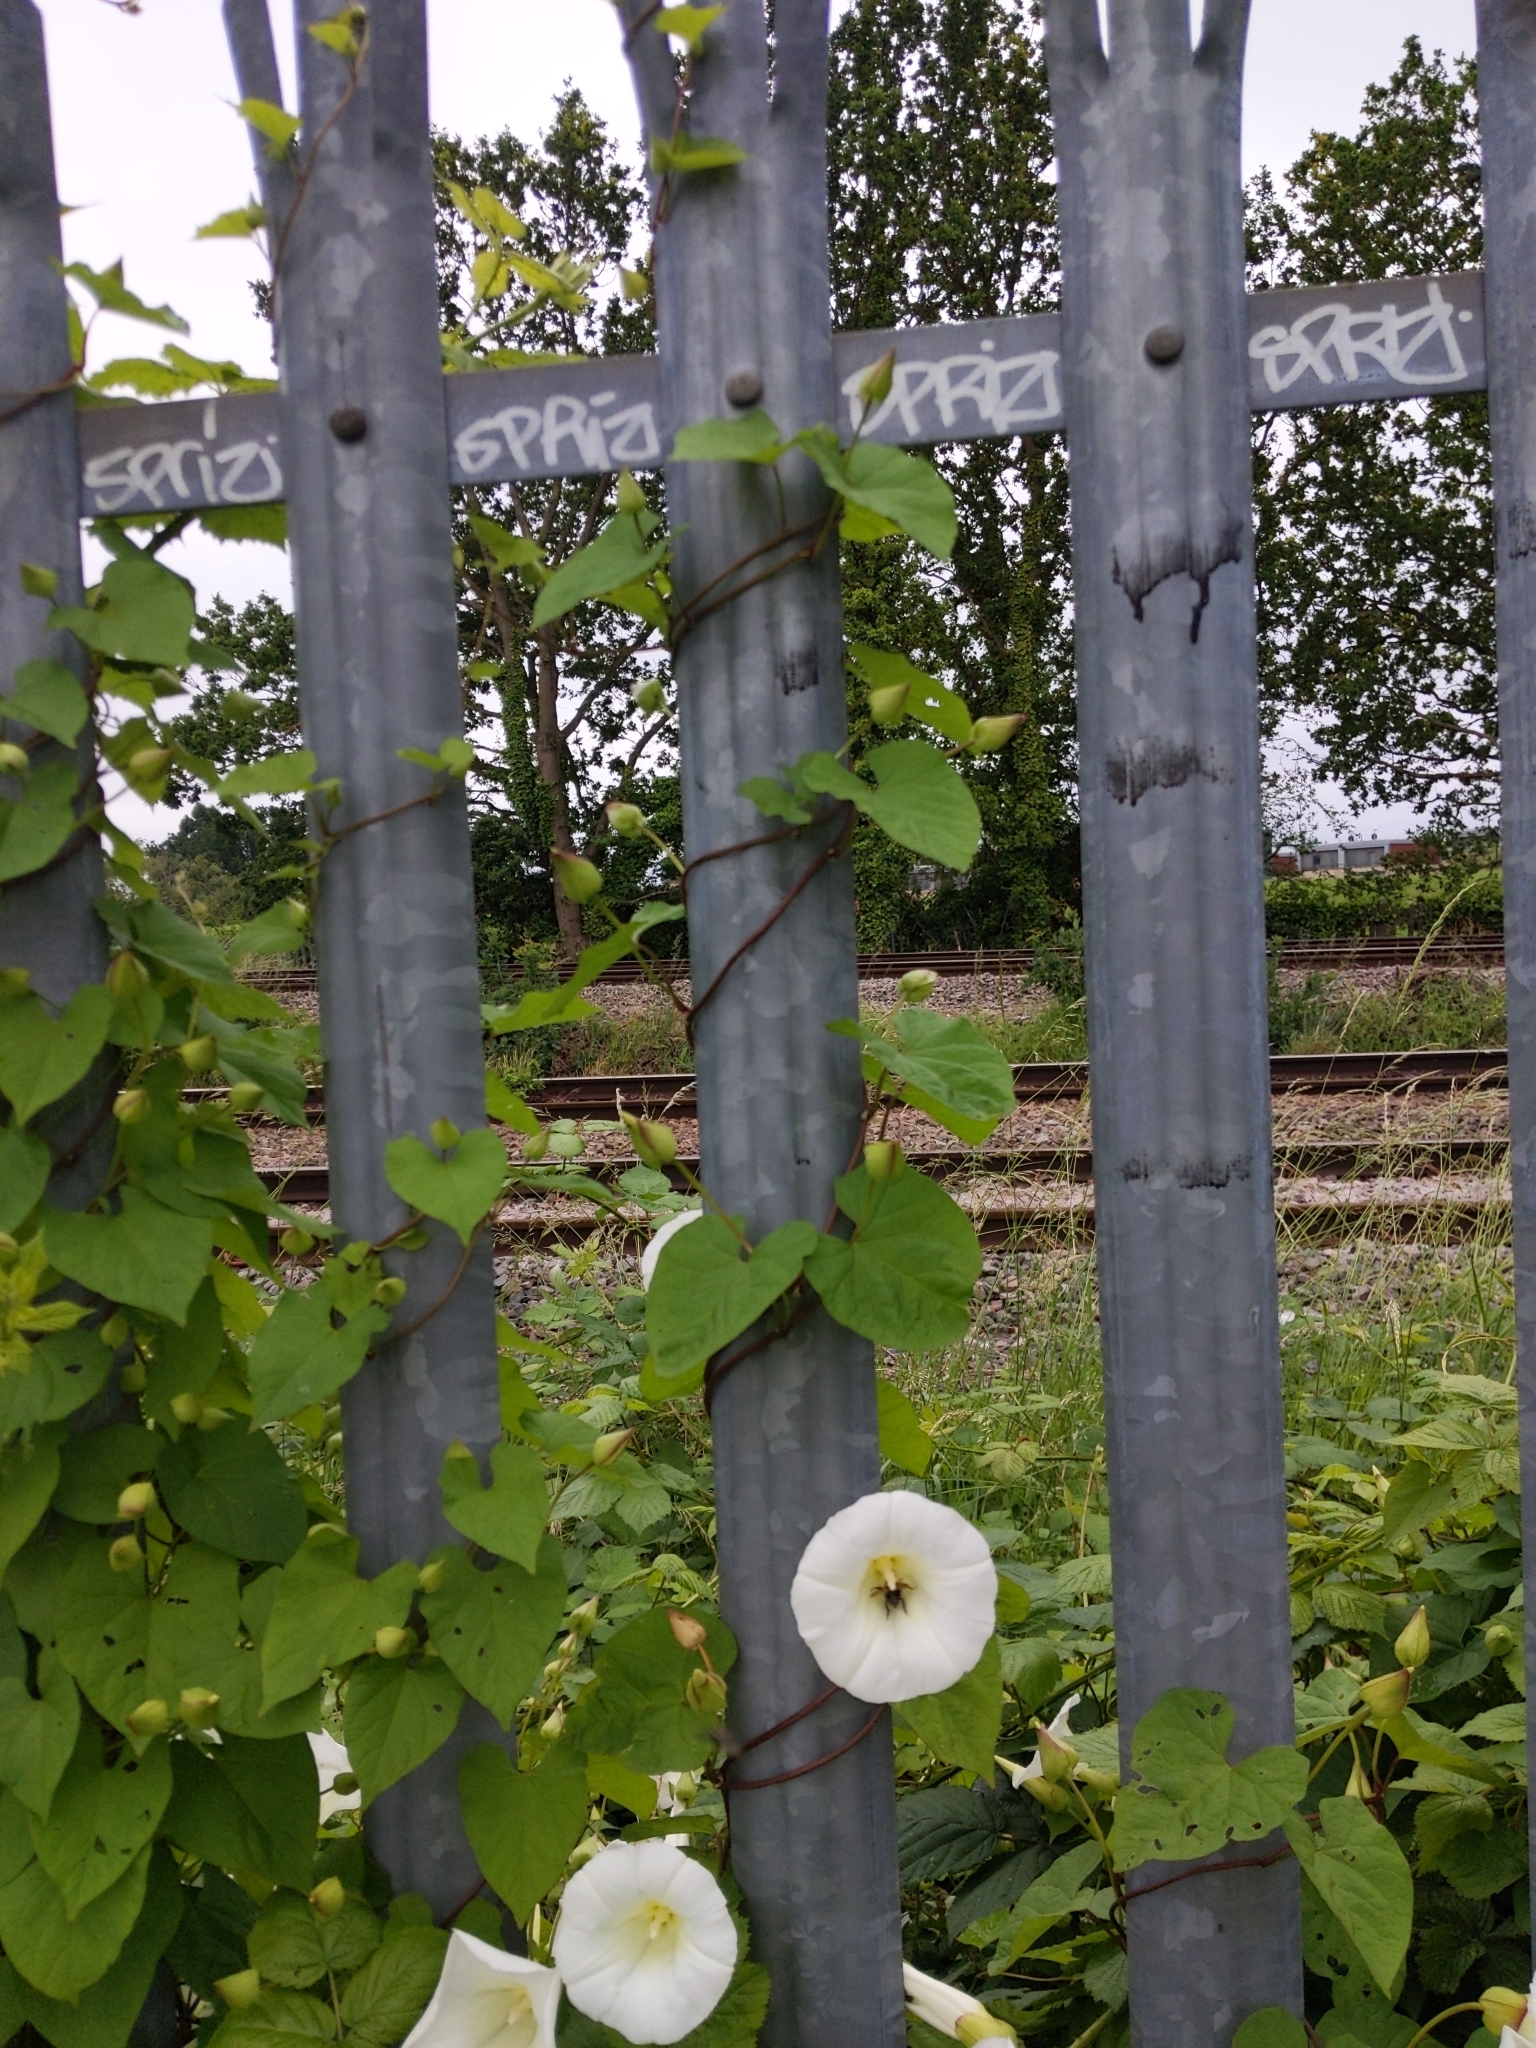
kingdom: Plantae
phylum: Tracheophyta
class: Magnoliopsida
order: Solanales
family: Convolvulaceae
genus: Calystegia
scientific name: Calystegia silvatica
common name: Large bindweed
